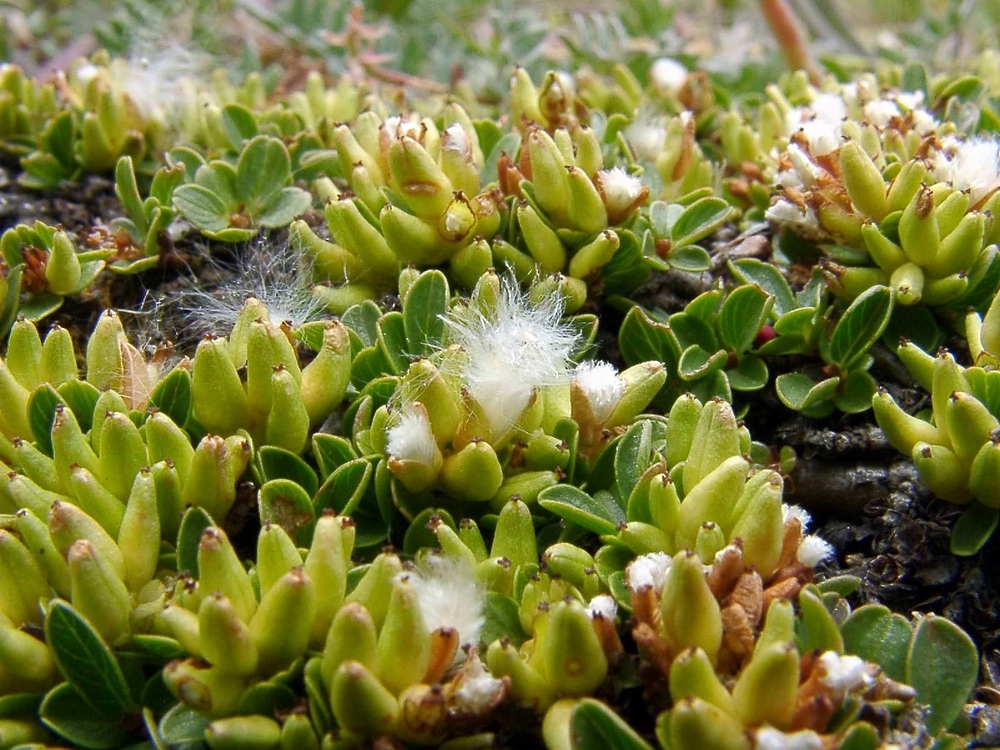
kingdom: Plantae
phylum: Tracheophyta
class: Magnoliopsida
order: Malpighiales
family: Salicaceae
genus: Salix
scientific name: Salix serpillifolia
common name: Thyme-leaf willow
